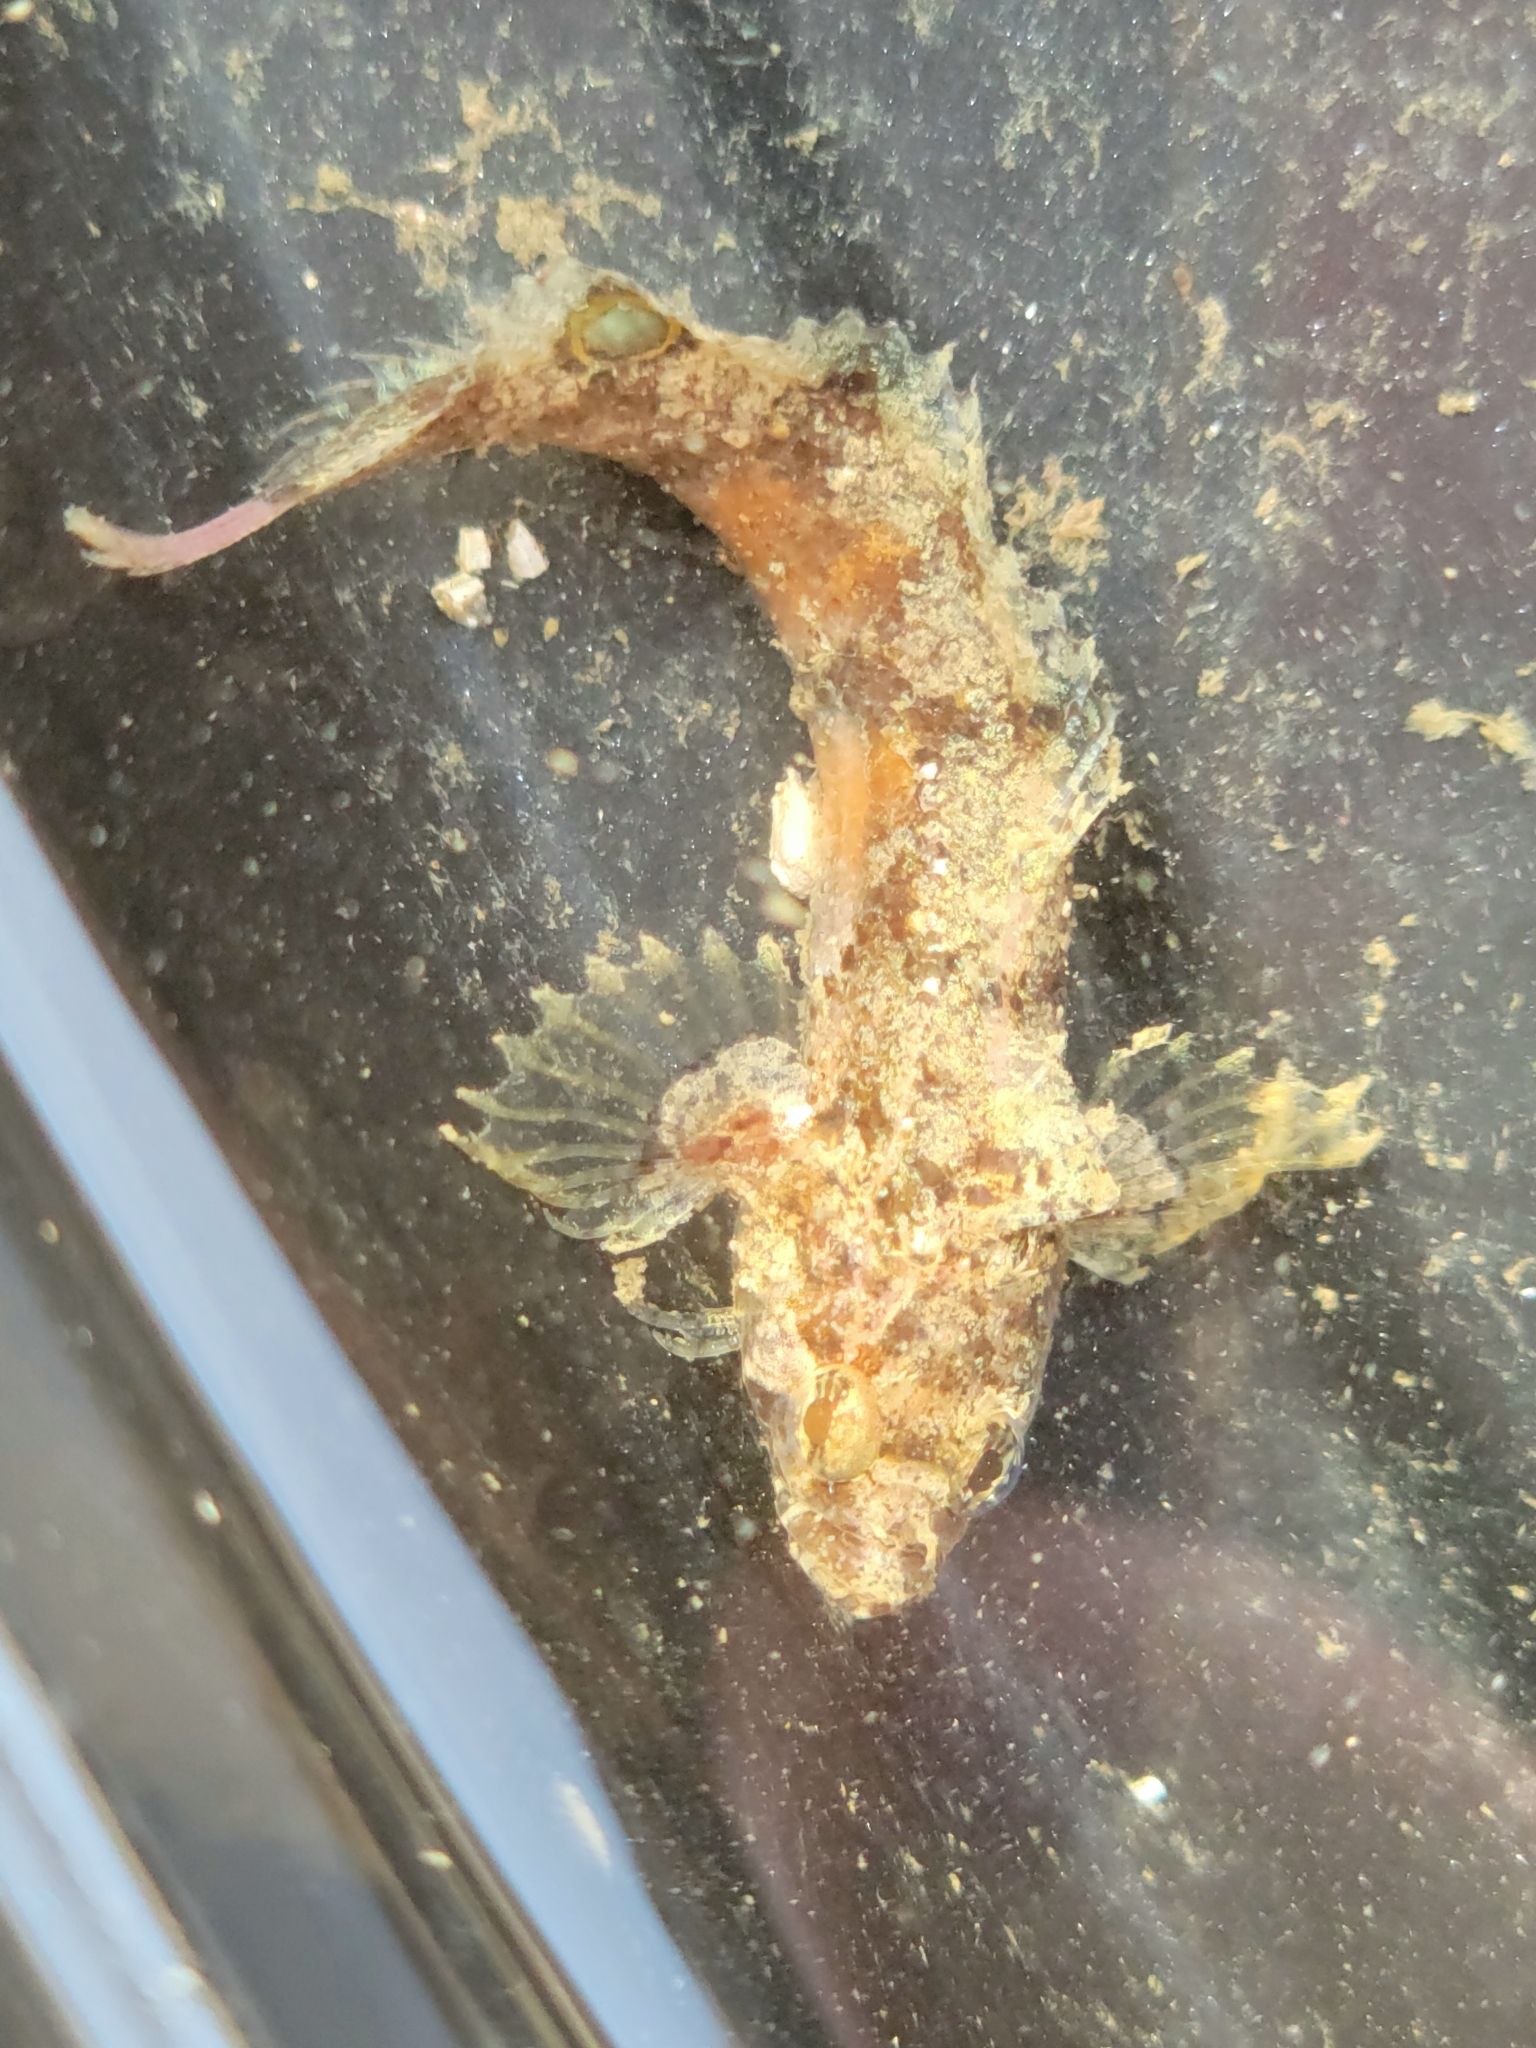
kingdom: Animalia
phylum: Chordata
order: Perciformes
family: Labrisomidae
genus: Paraclinus
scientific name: Paraclinus integripinnis
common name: Reef finspot
